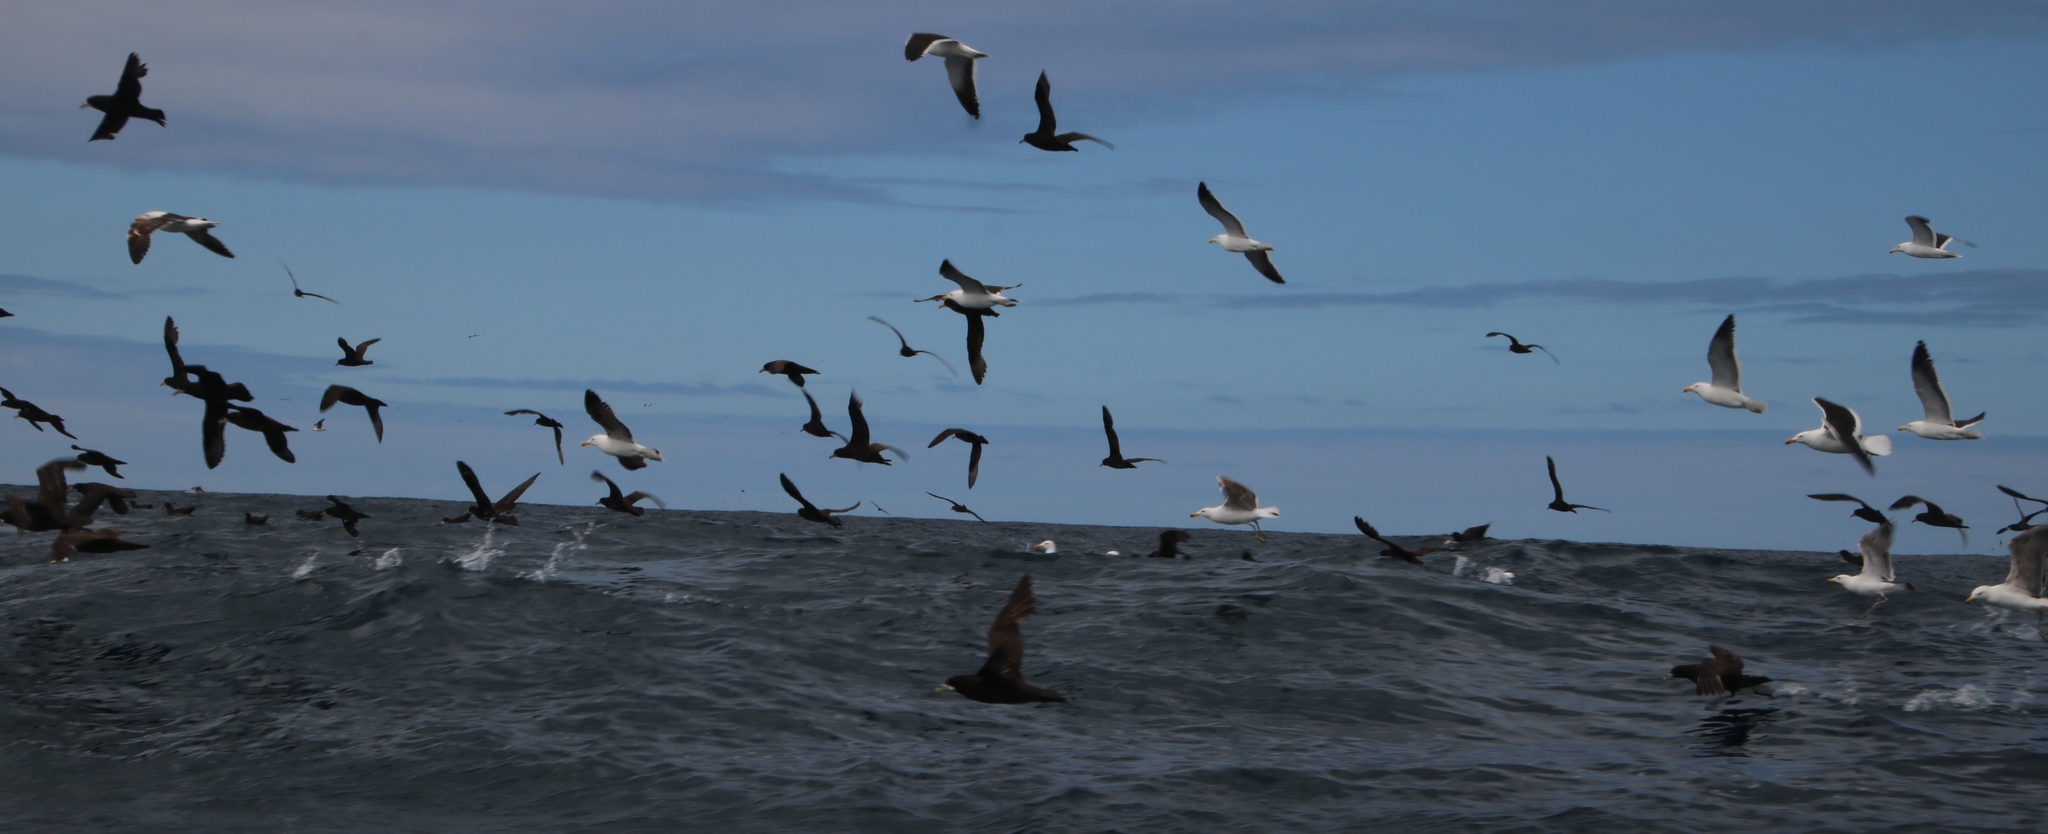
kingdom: Animalia
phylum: Chordata
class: Aves
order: Procellariiformes
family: Procellariidae
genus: Procellaria
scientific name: Procellaria aequinoctialis
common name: White-chinned petrel
